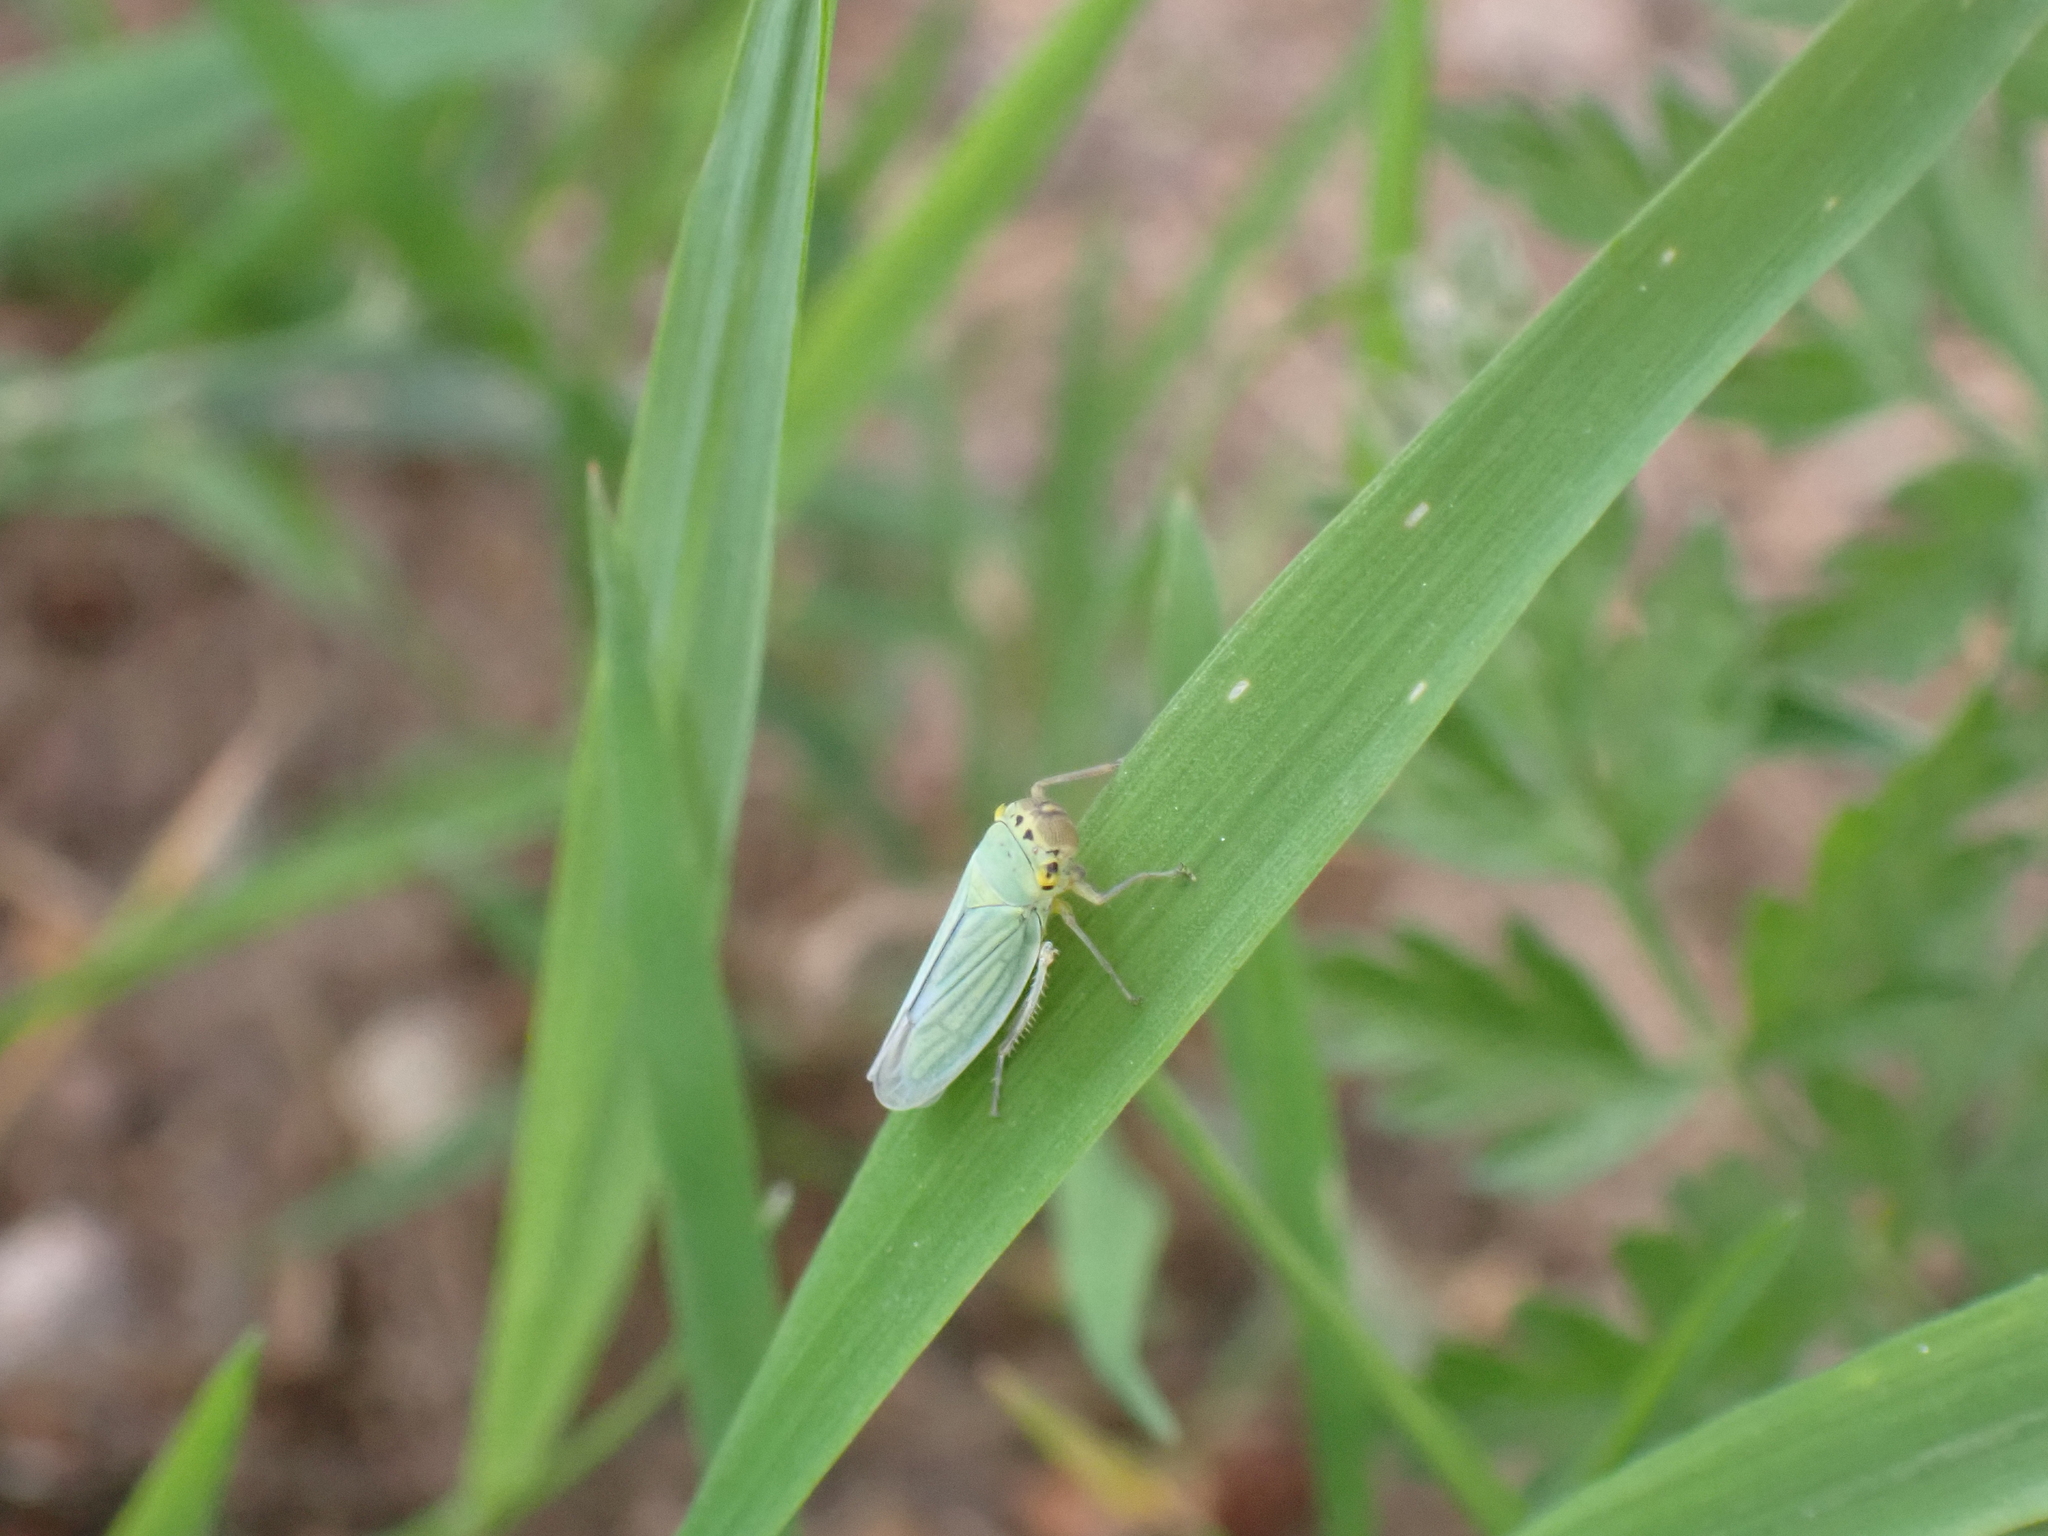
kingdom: Animalia
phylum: Arthropoda
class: Insecta
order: Hemiptera
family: Cicadellidae
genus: Cicadella
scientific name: Cicadella viridis
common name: Leafhopper
